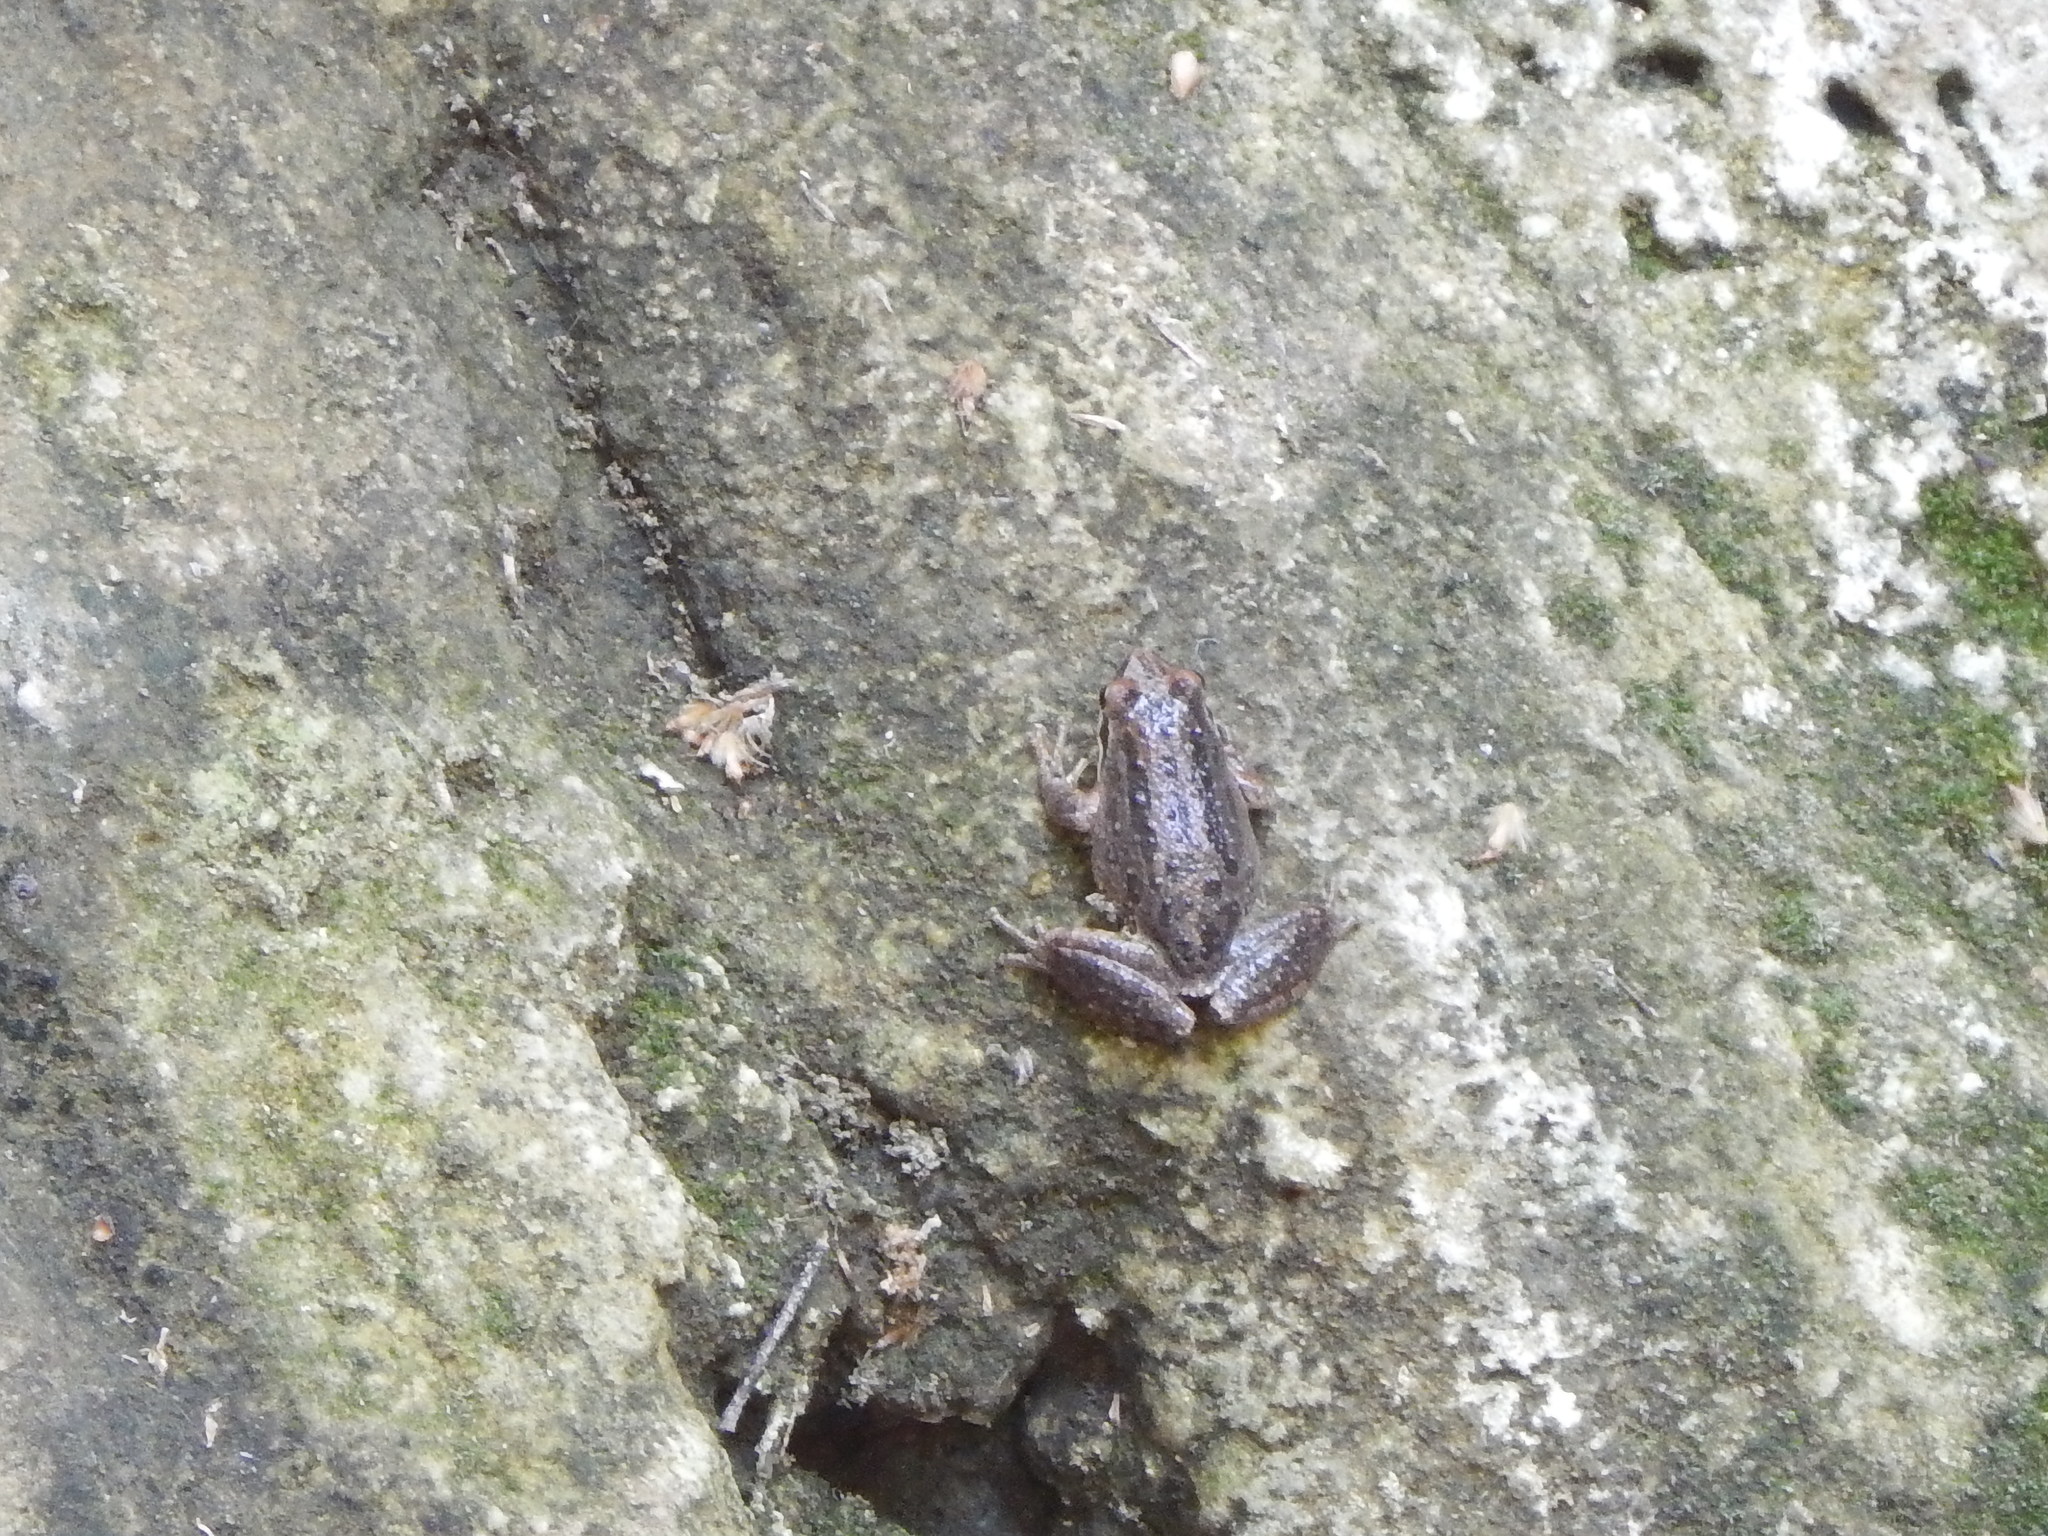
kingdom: Animalia
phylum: Chordata
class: Amphibia
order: Anura
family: Hylidae
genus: Pseudacris
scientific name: Pseudacris regilla
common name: Pacific chorus frog
